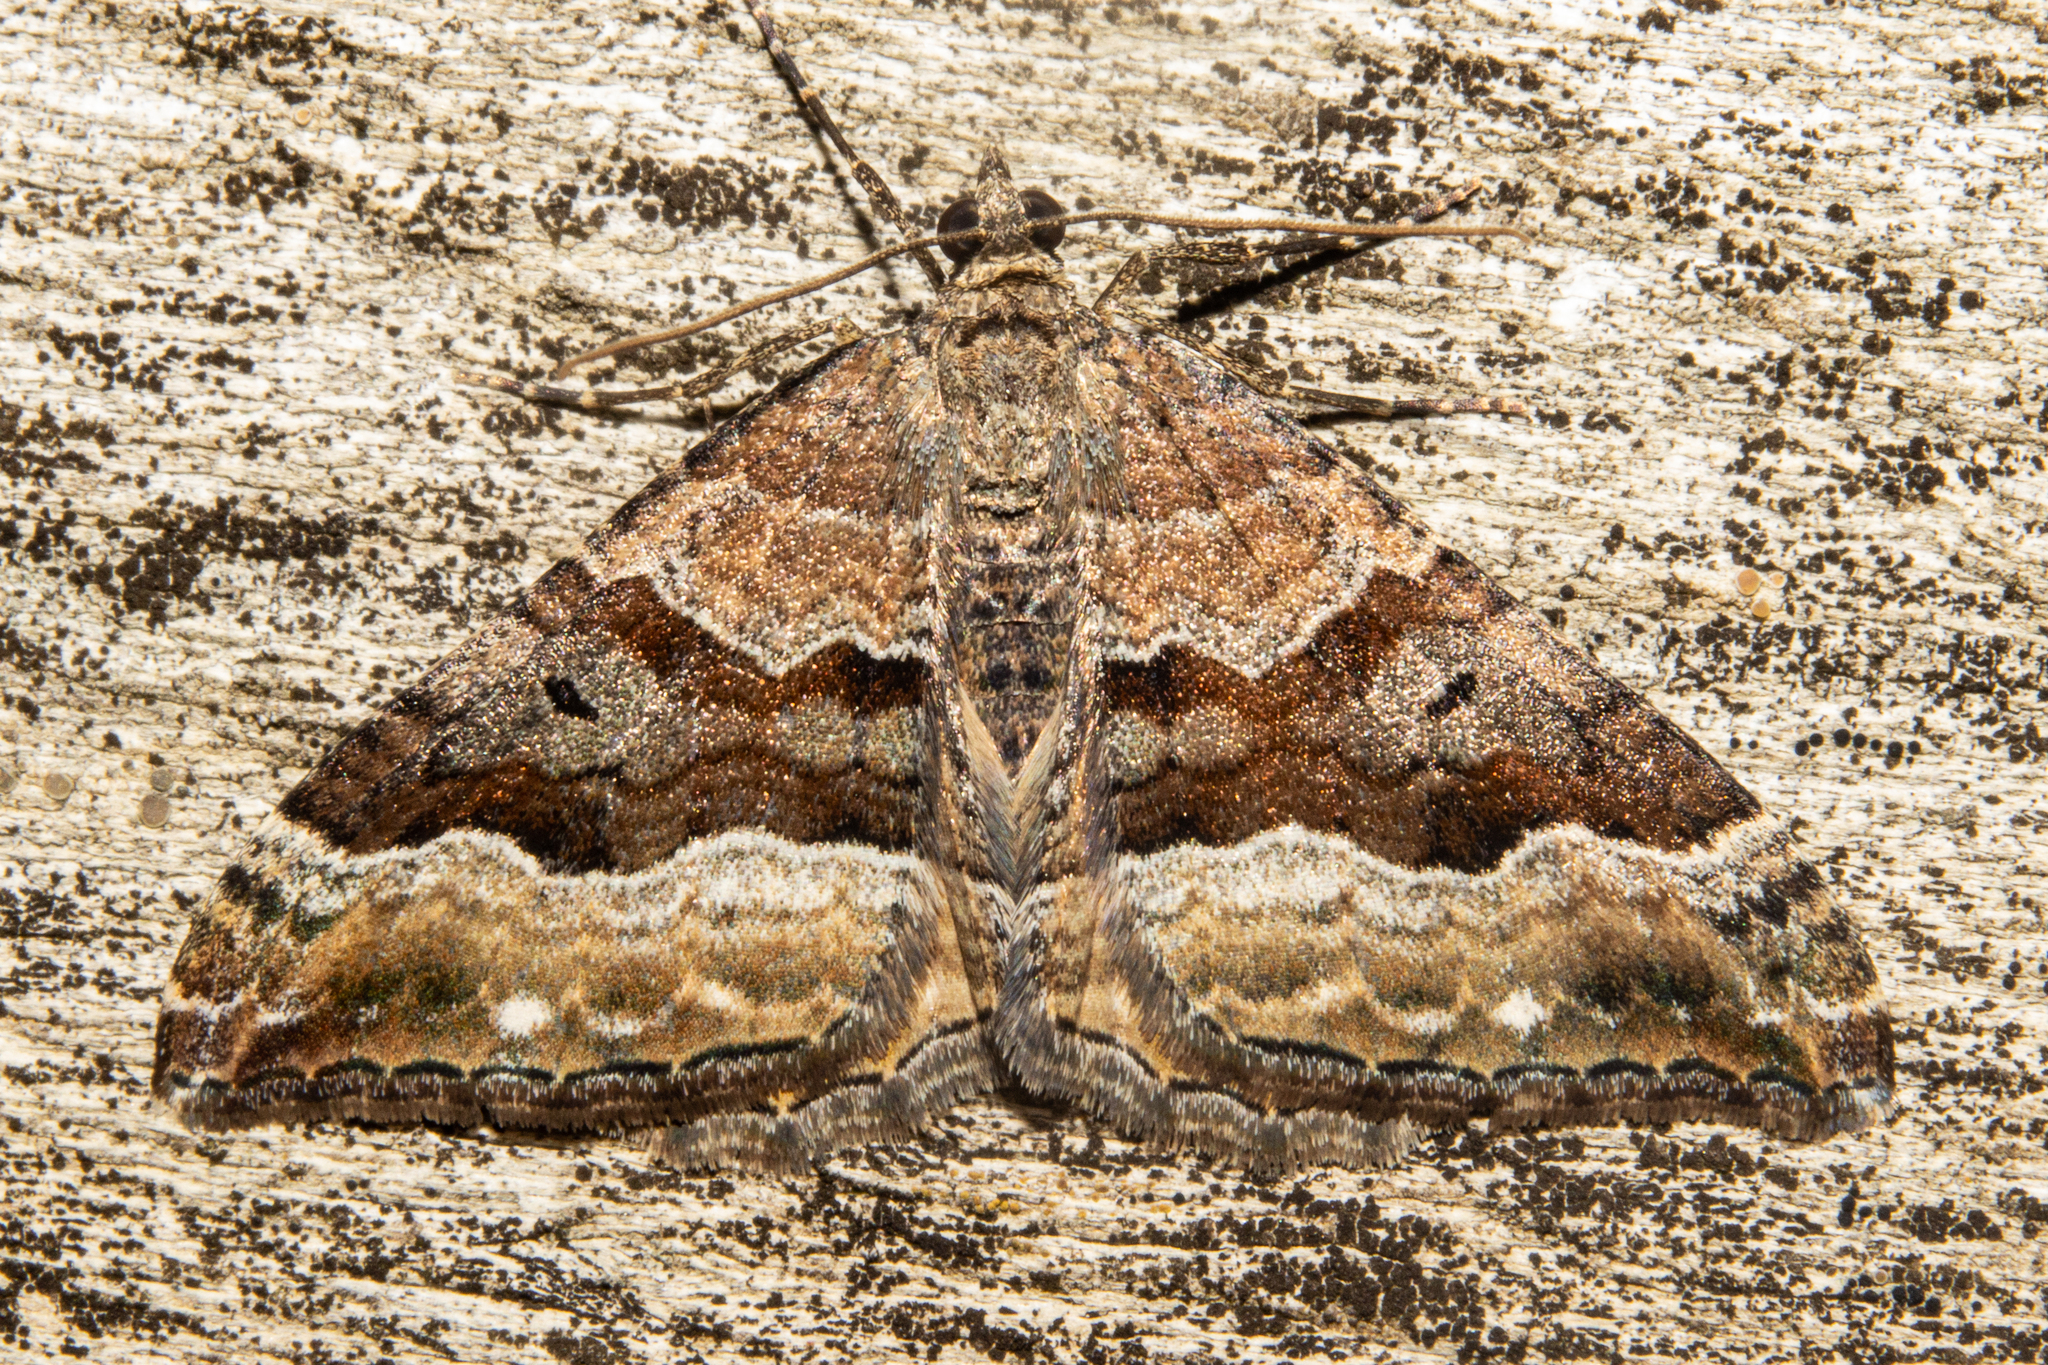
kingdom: Animalia
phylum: Arthropoda
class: Insecta
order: Lepidoptera
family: Geometridae
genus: Hydriomena
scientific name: Hydriomena deltoidata
